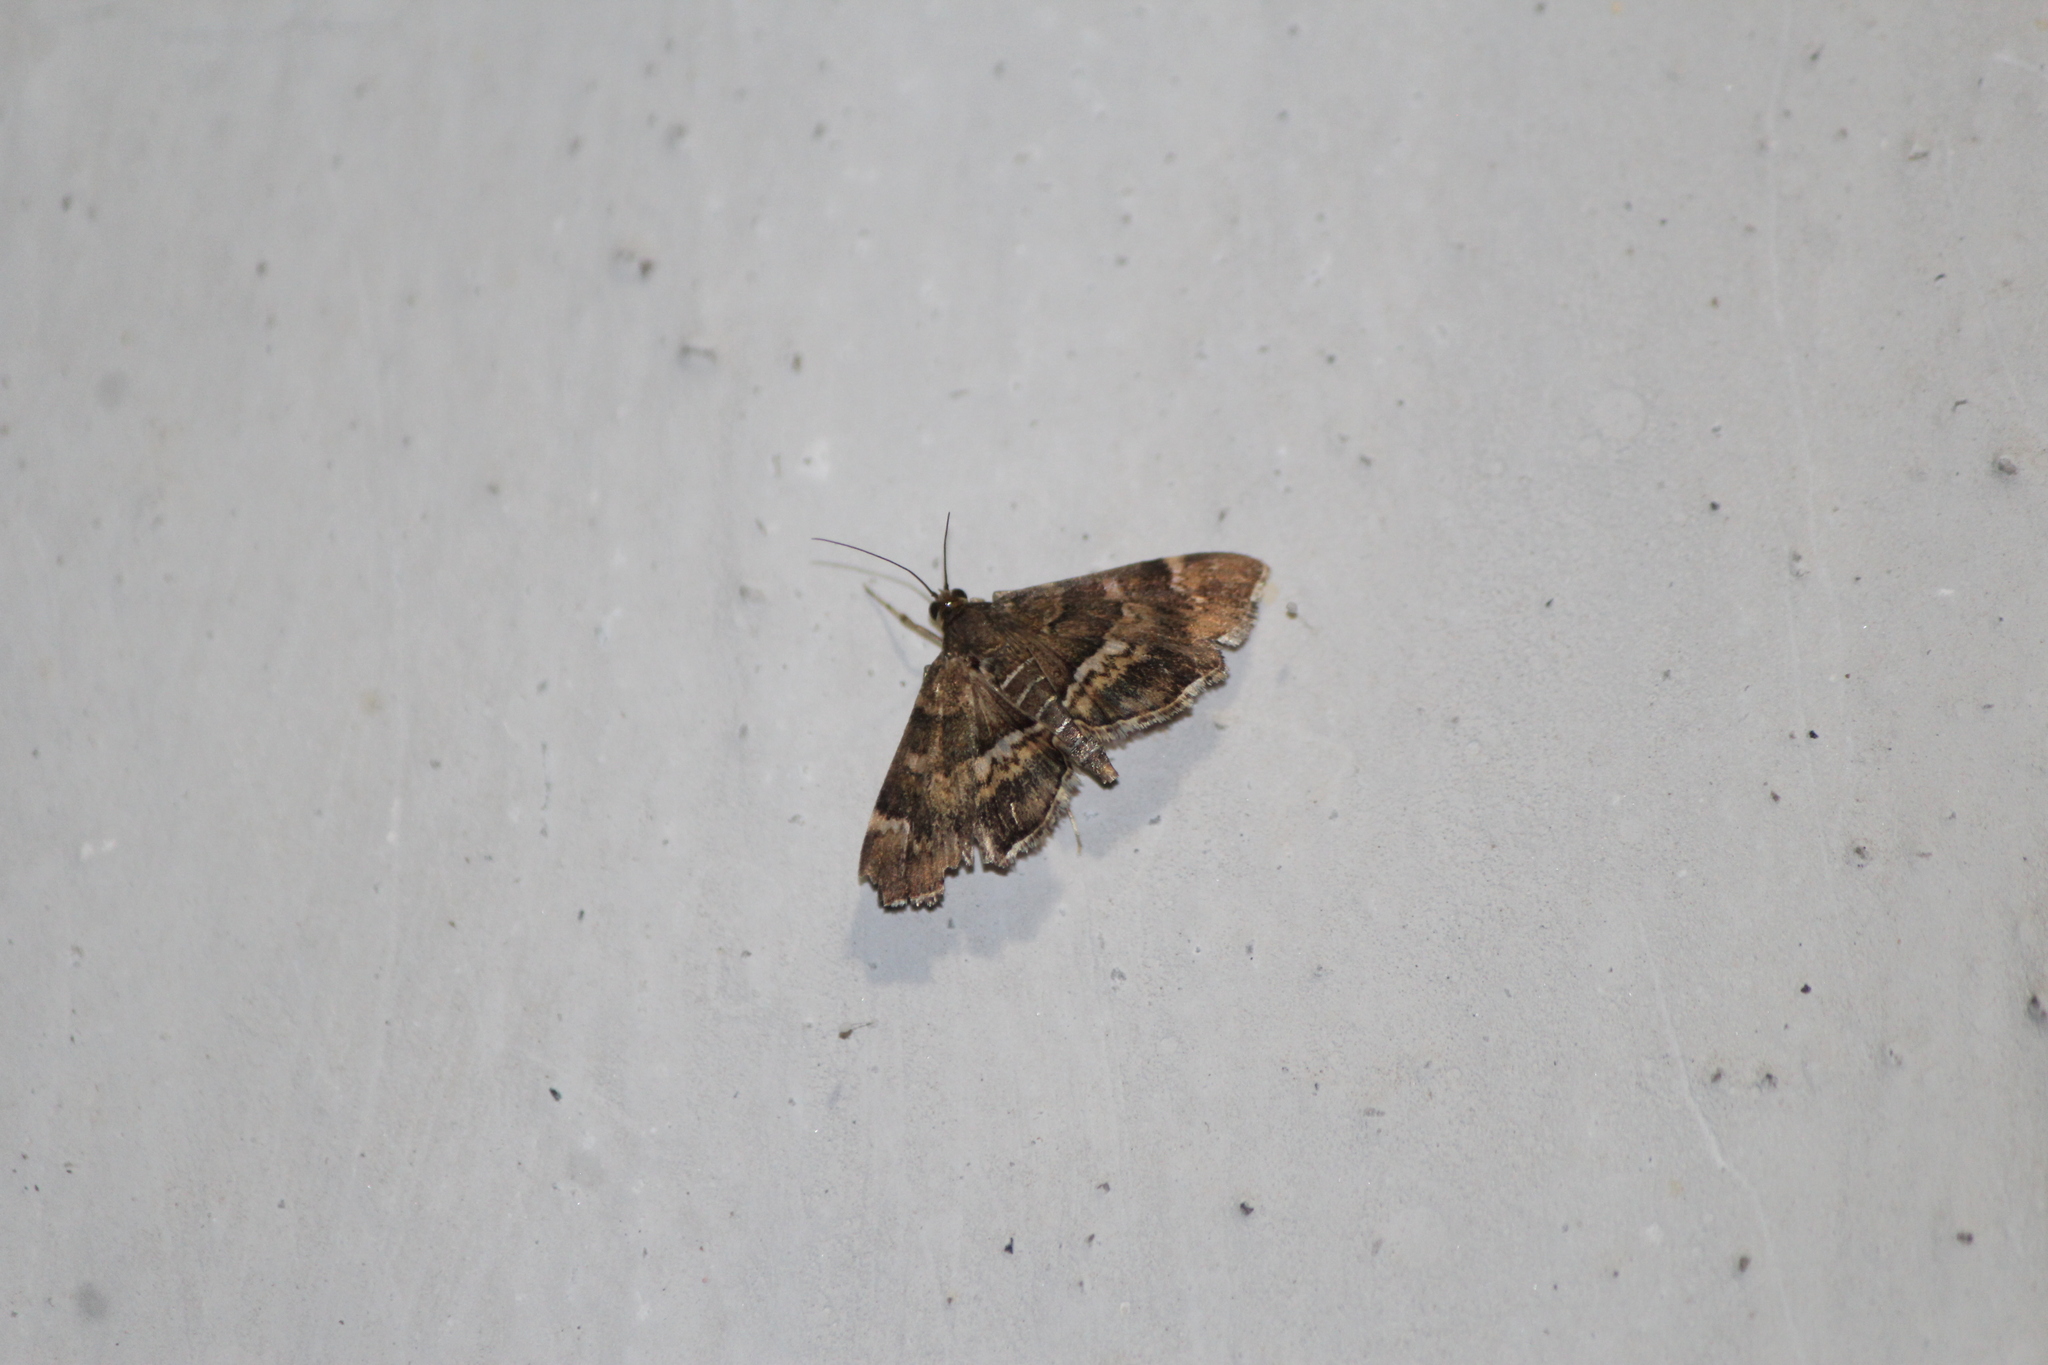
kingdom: Animalia
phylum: Arthropoda
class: Insecta
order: Lepidoptera
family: Crambidae
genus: Hymenia
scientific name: Hymenia perspectalis
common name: Spotted beet webworm
